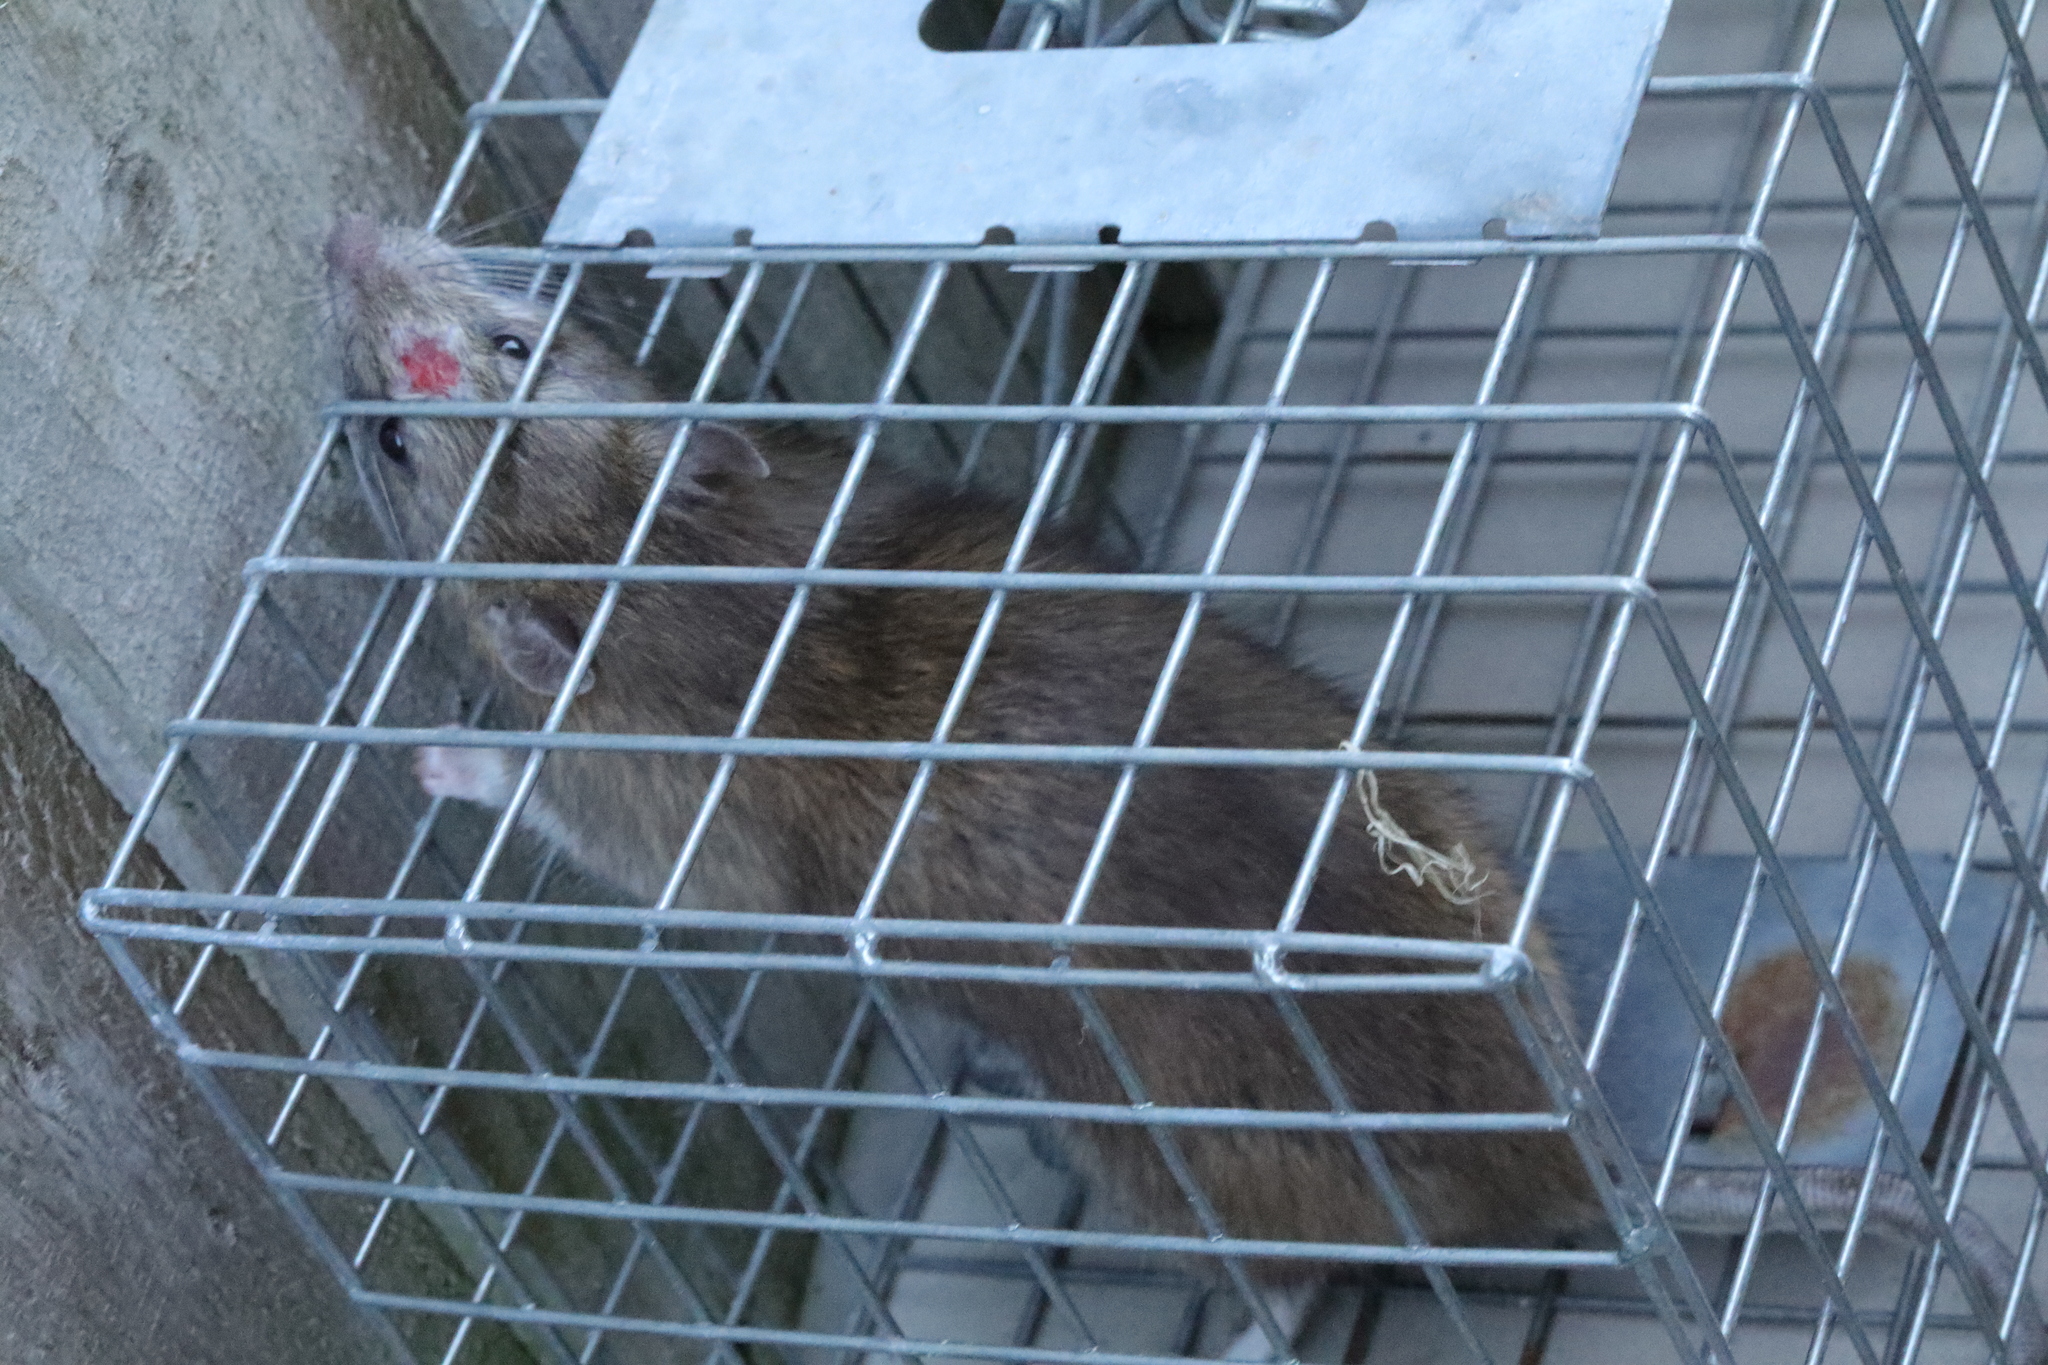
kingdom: Animalia
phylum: Chordata
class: Mammalia
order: Rodentia
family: Muridae
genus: Rattus
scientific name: Rattus norvegicus
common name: Brown rat
